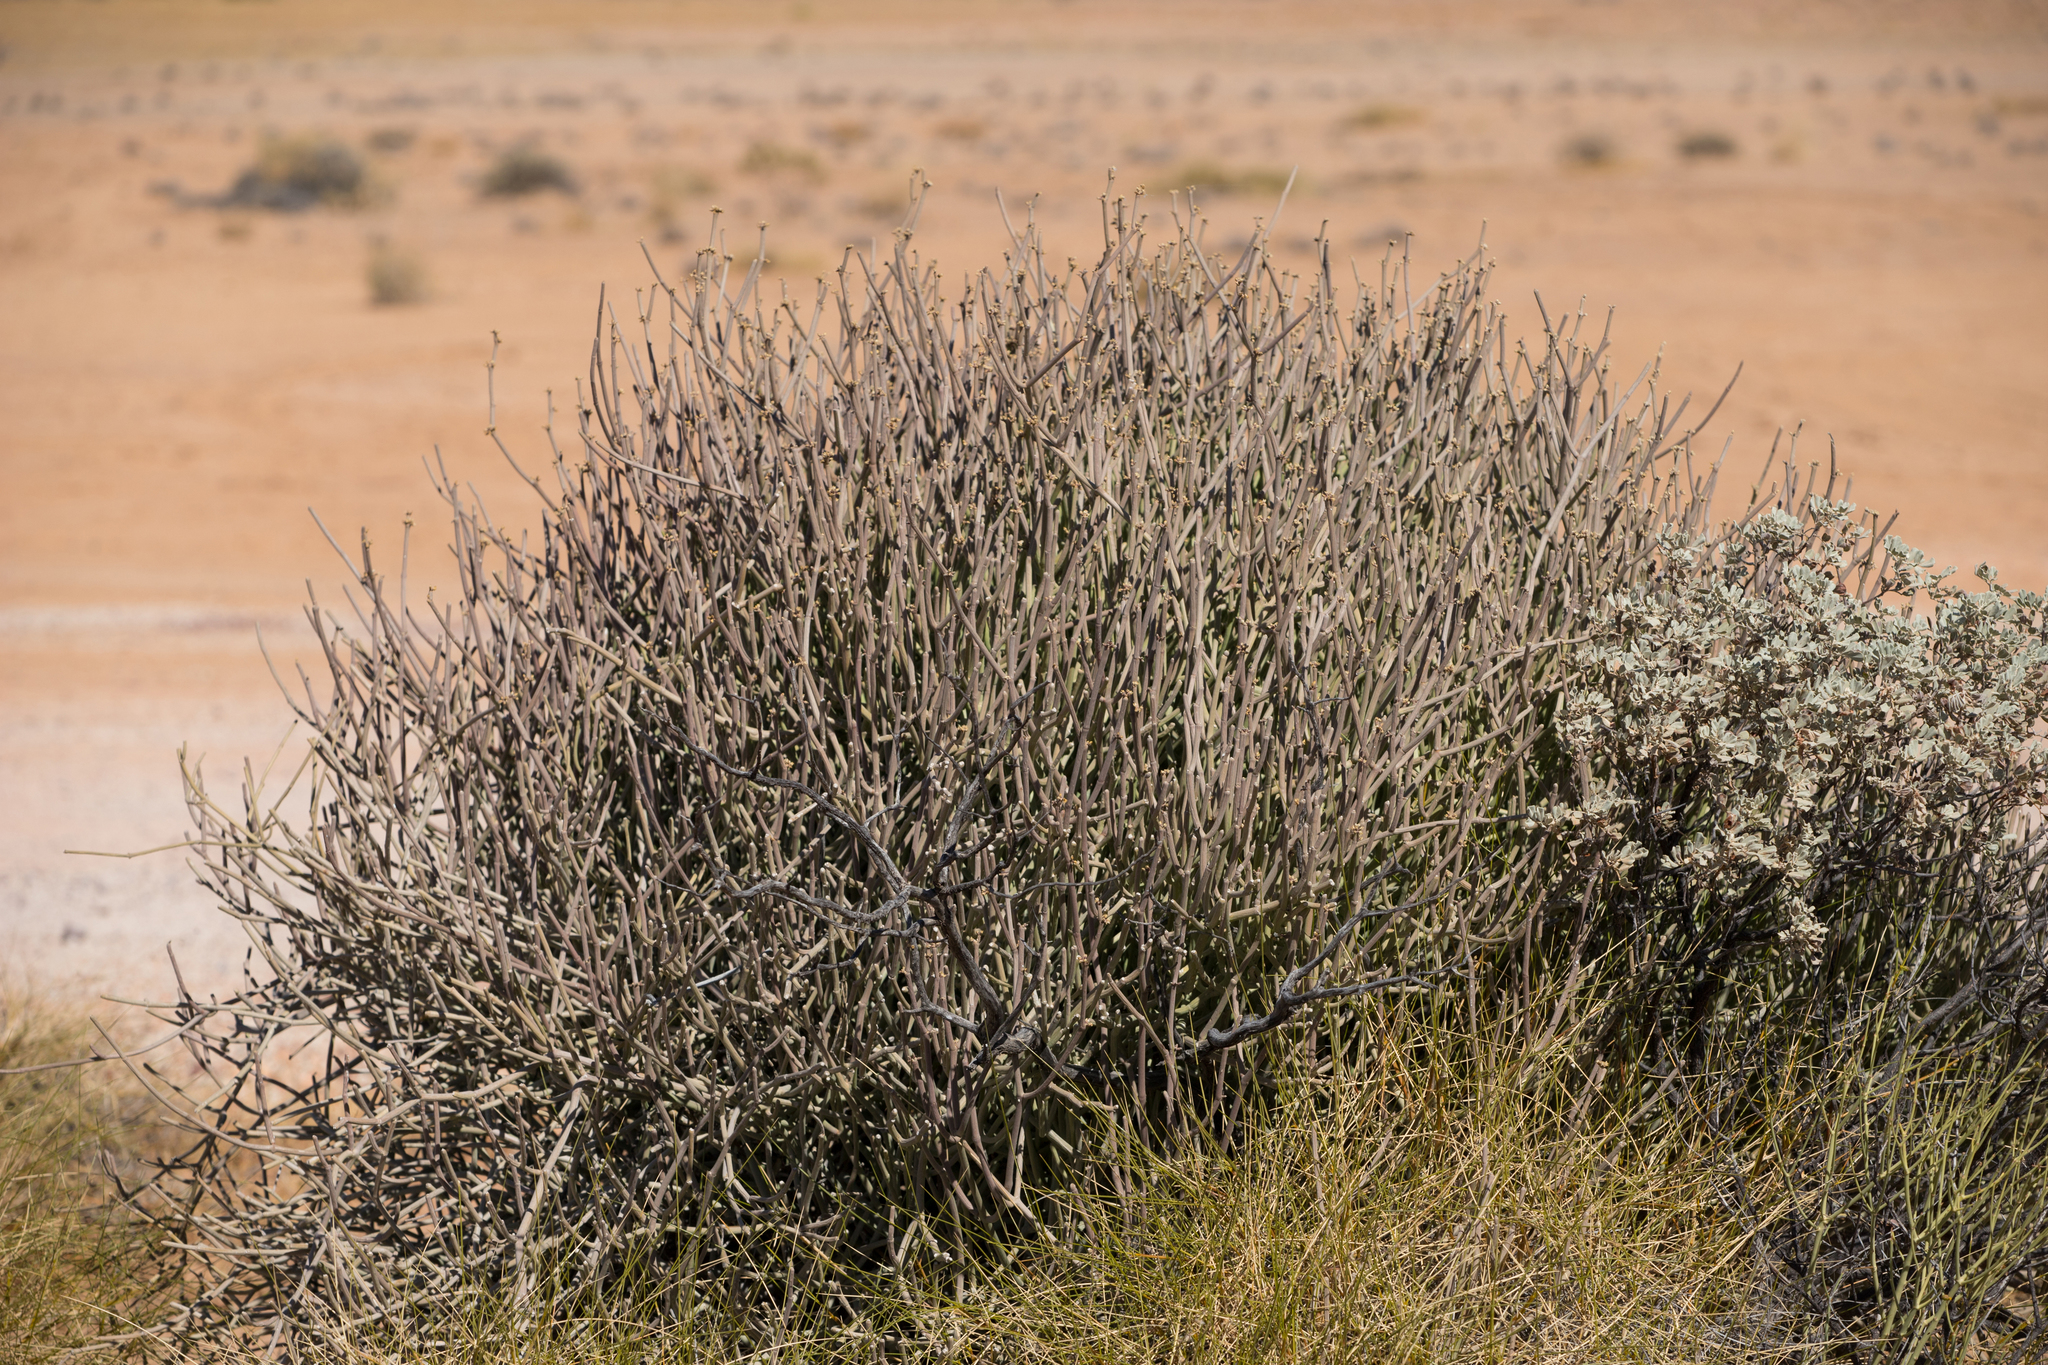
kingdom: Plantae
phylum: Tracheophyta
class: Magnoliopsida
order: Gentianales
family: Apocynaceae
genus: Cynanchum
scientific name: Cynanchum viminale
